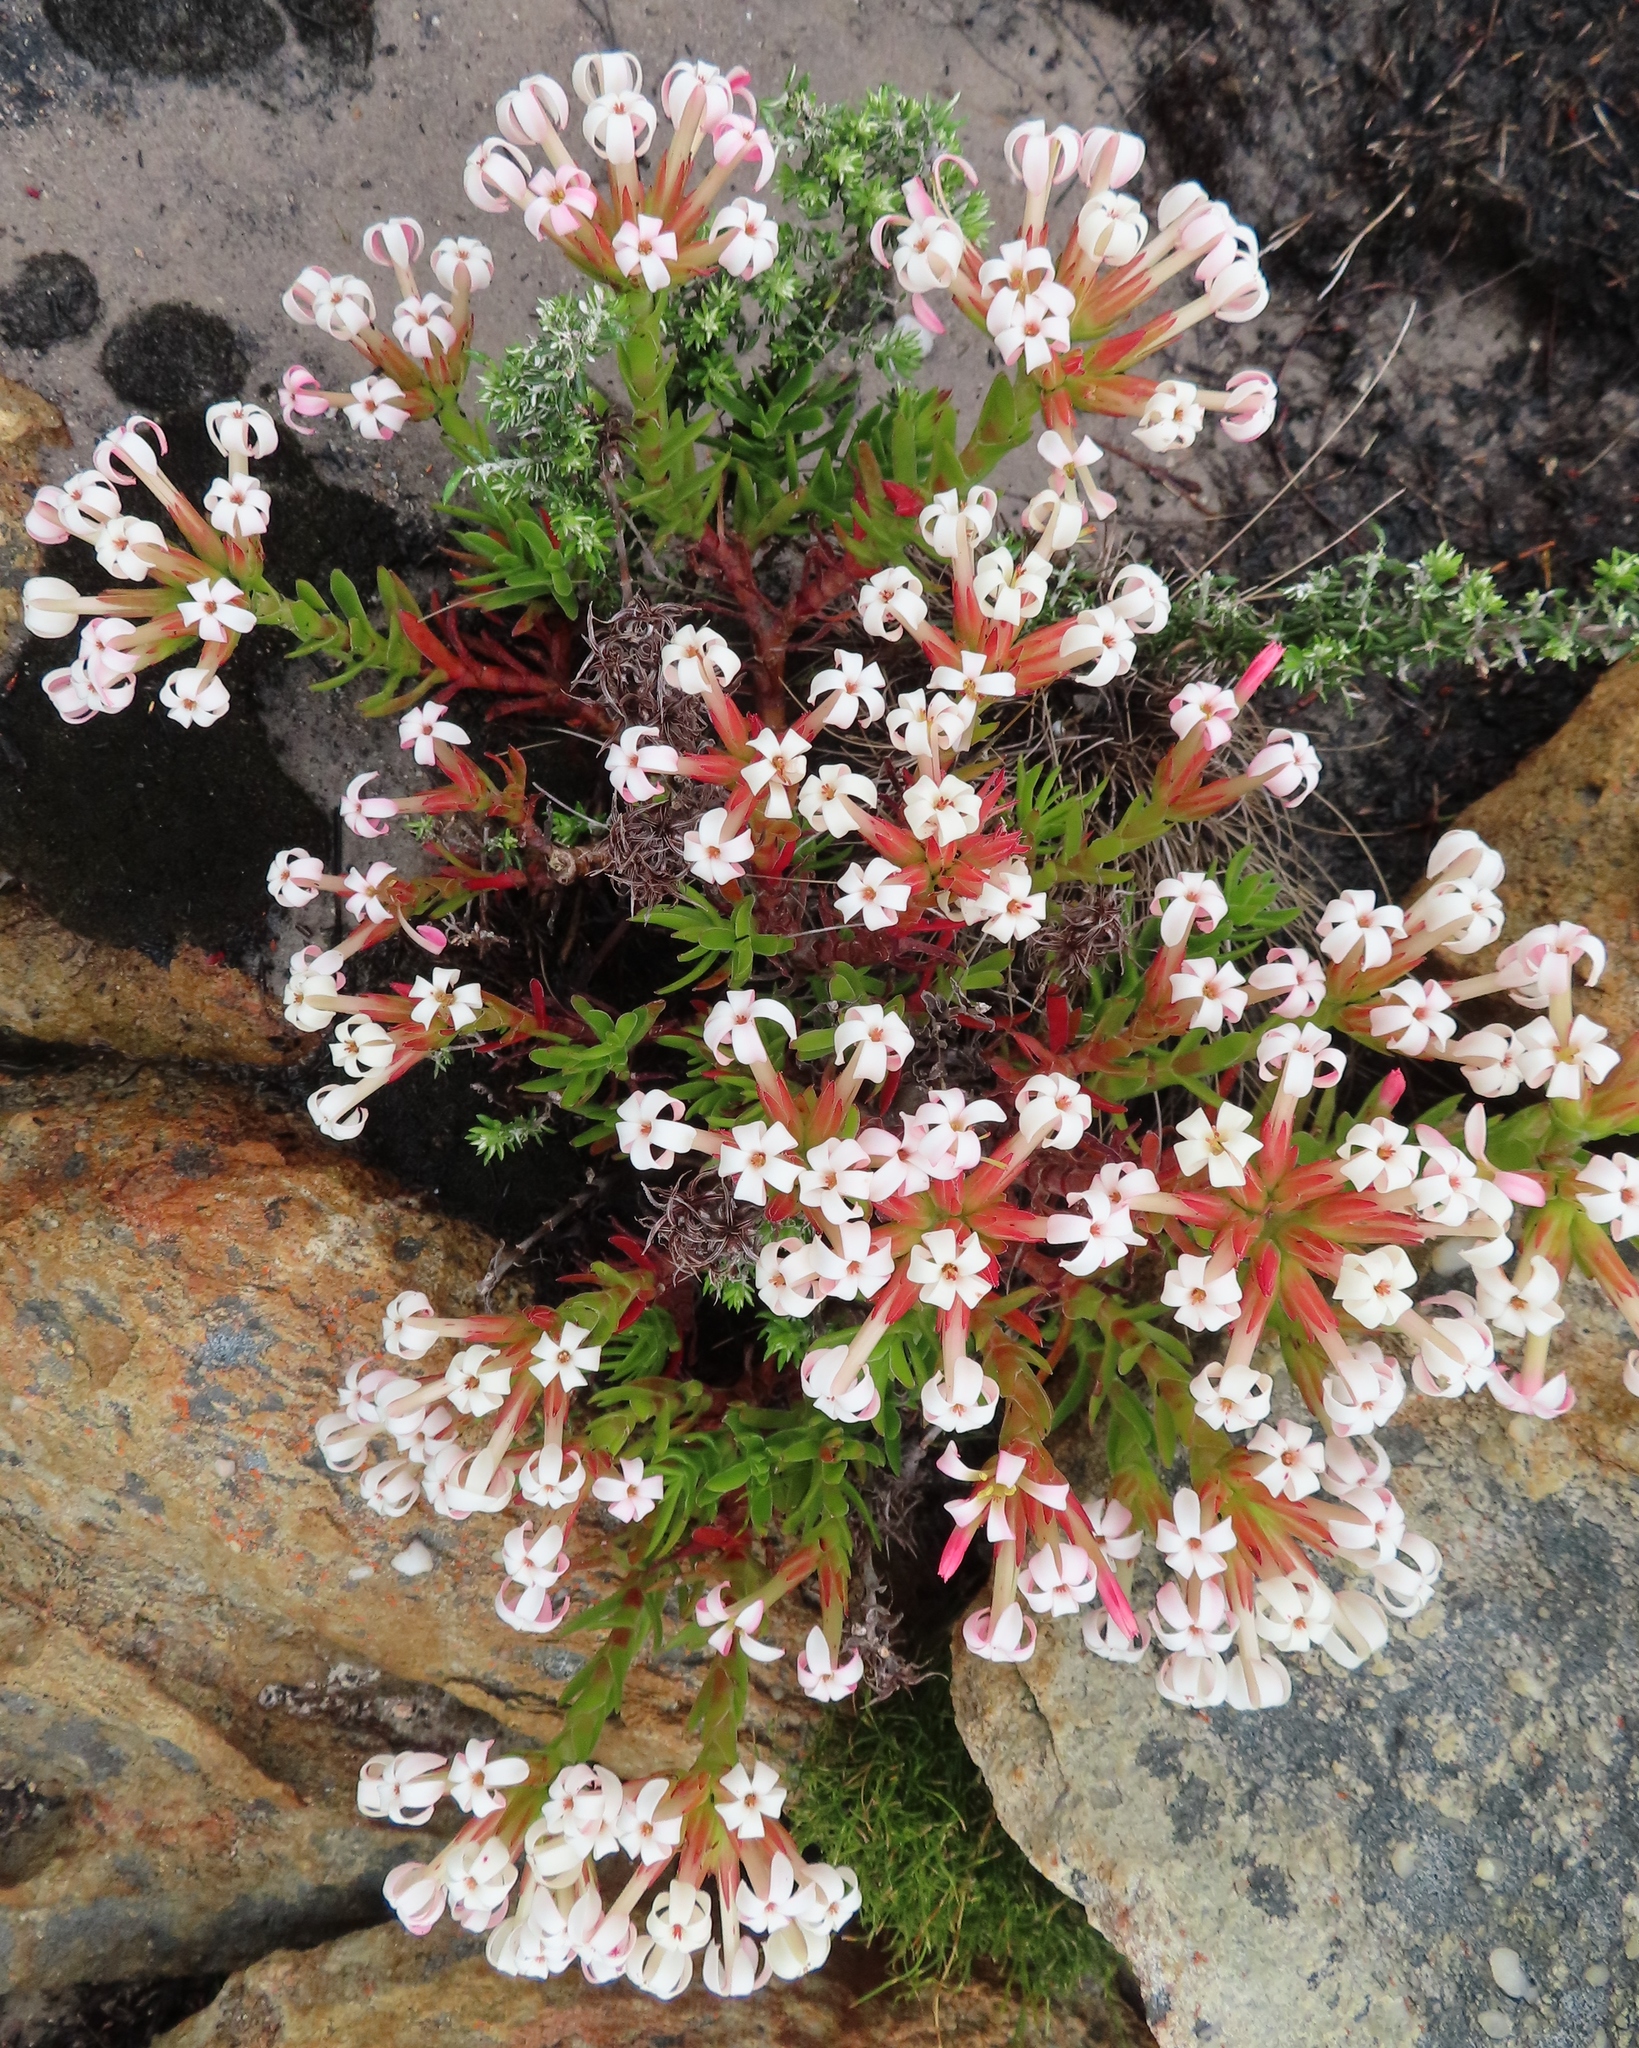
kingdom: Plantae
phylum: Tracheophyta
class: Magnoliopsida
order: Saxifragales
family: Crassulaceae
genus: Crassula
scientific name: Crassula fascicularis
